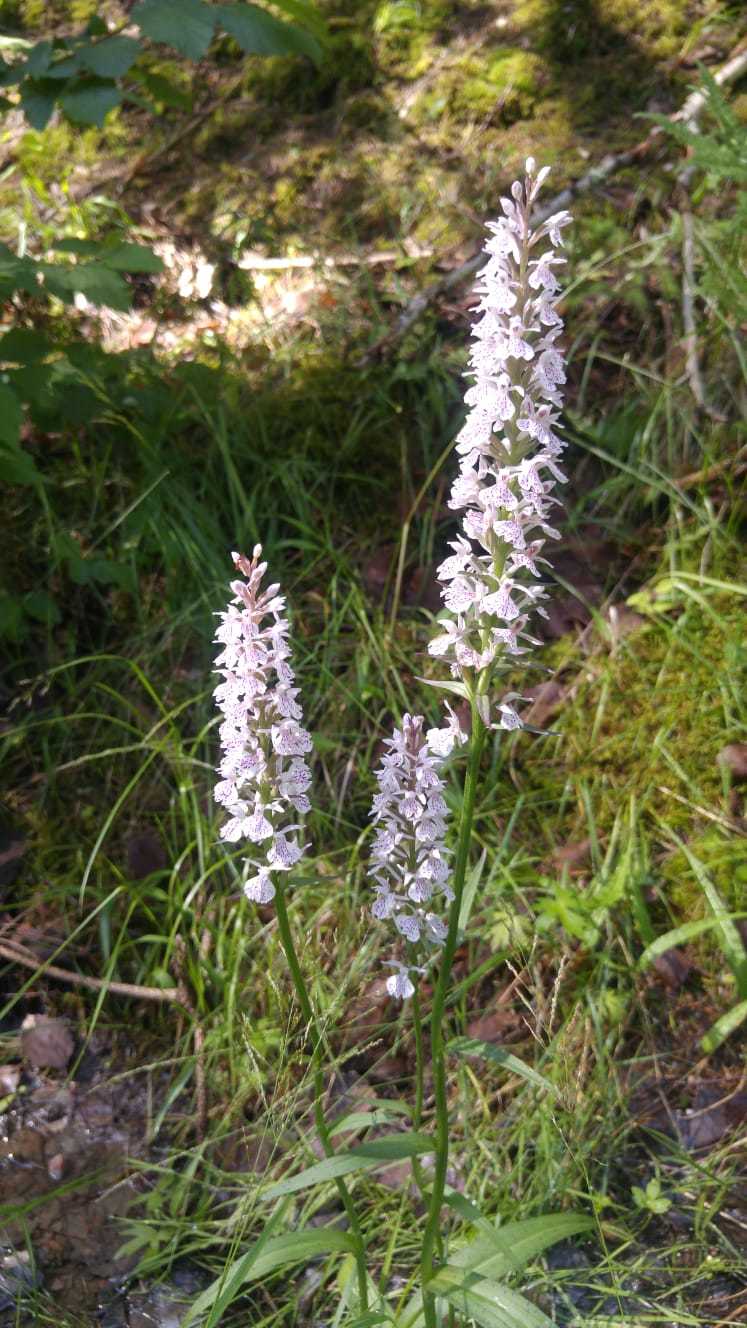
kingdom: Plantae
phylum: Tracheophyta
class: Liliopsida
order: Asparagales
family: Orchidaceae
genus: Dactylorhiza
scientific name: Dactylorhiza maculata
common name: Heath spotted-orchid
